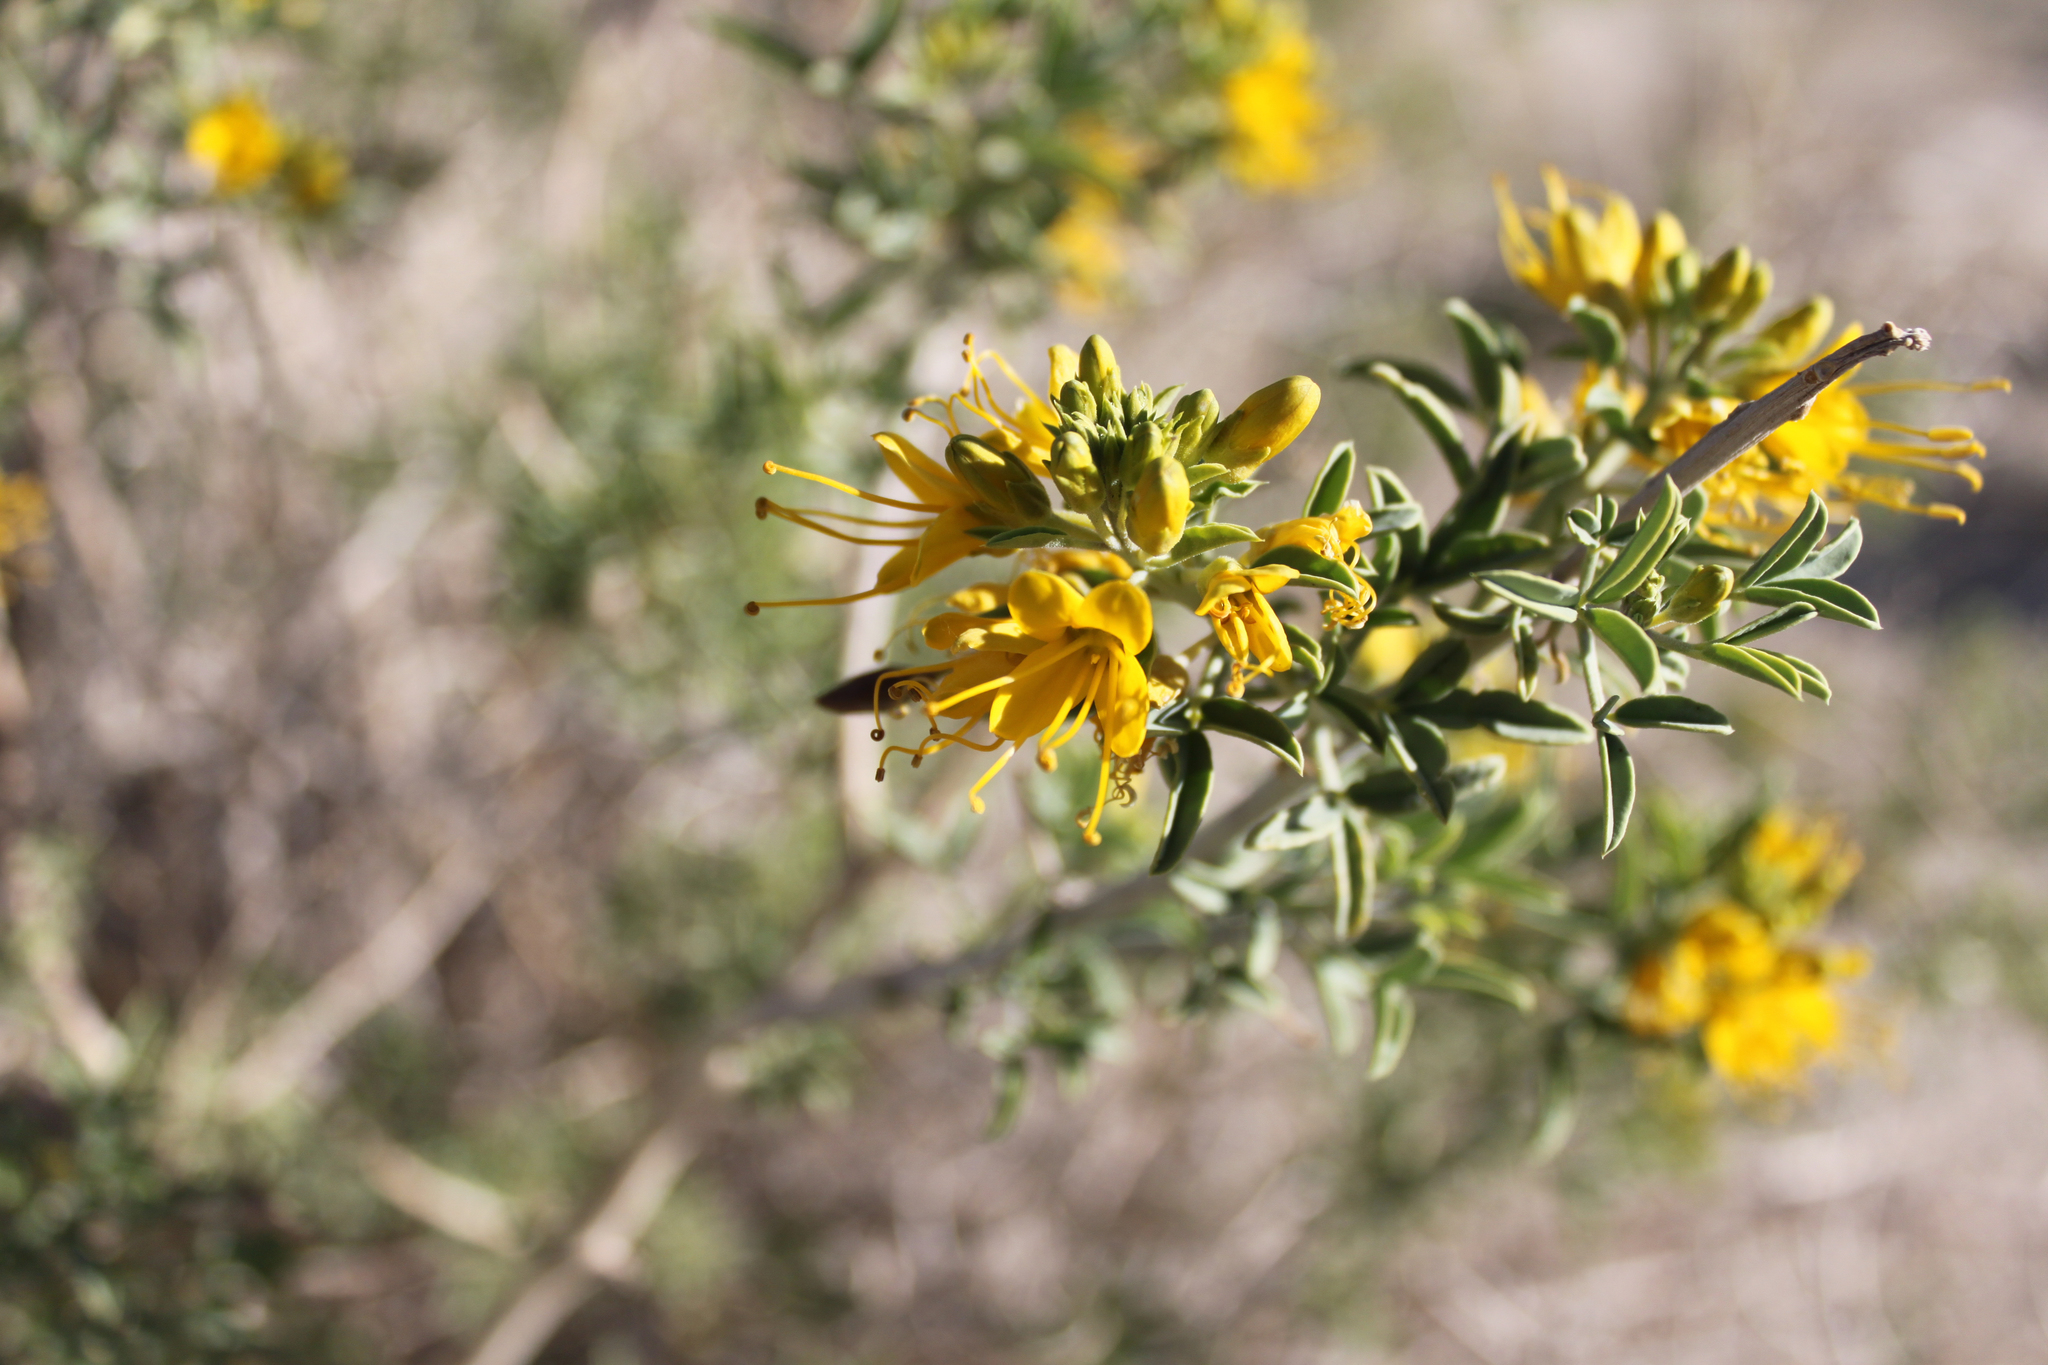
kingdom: Plantae
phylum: Tracheophyta
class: Magnoliopsida
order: Brassicales
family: Cleomaceae
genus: Cleomella
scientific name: Cleomella arborea
